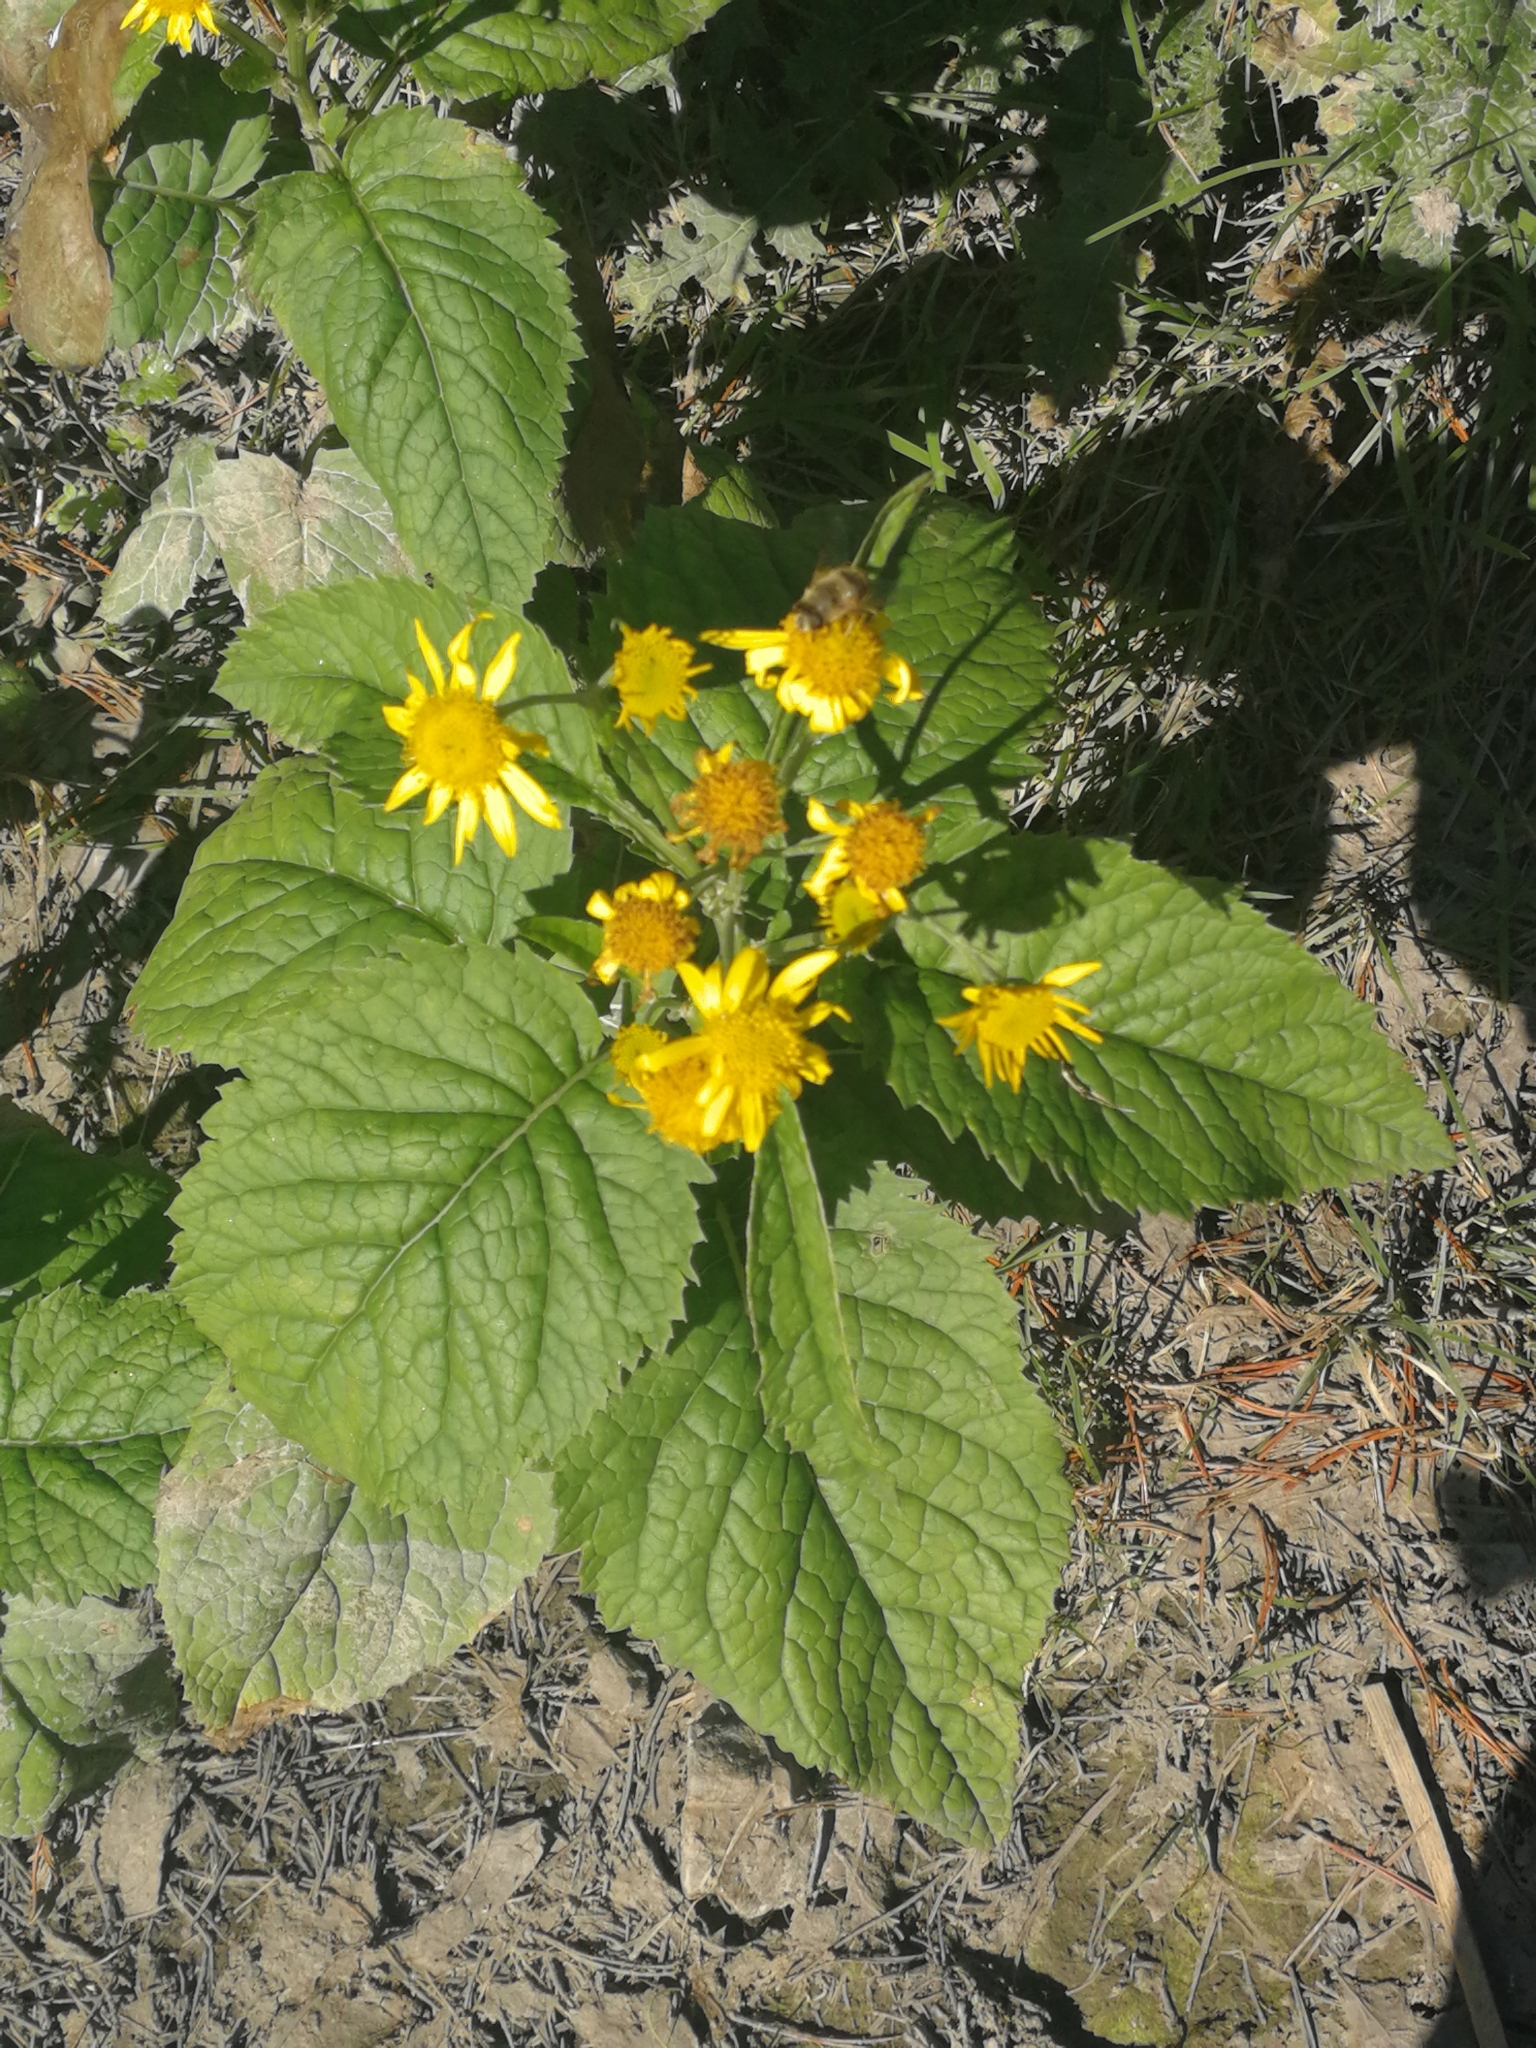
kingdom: Plantae
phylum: Tracheophyta
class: Magnoliopsida
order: Asterales
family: Asteraceae
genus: Jacobaea
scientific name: Jacobaea alpina
